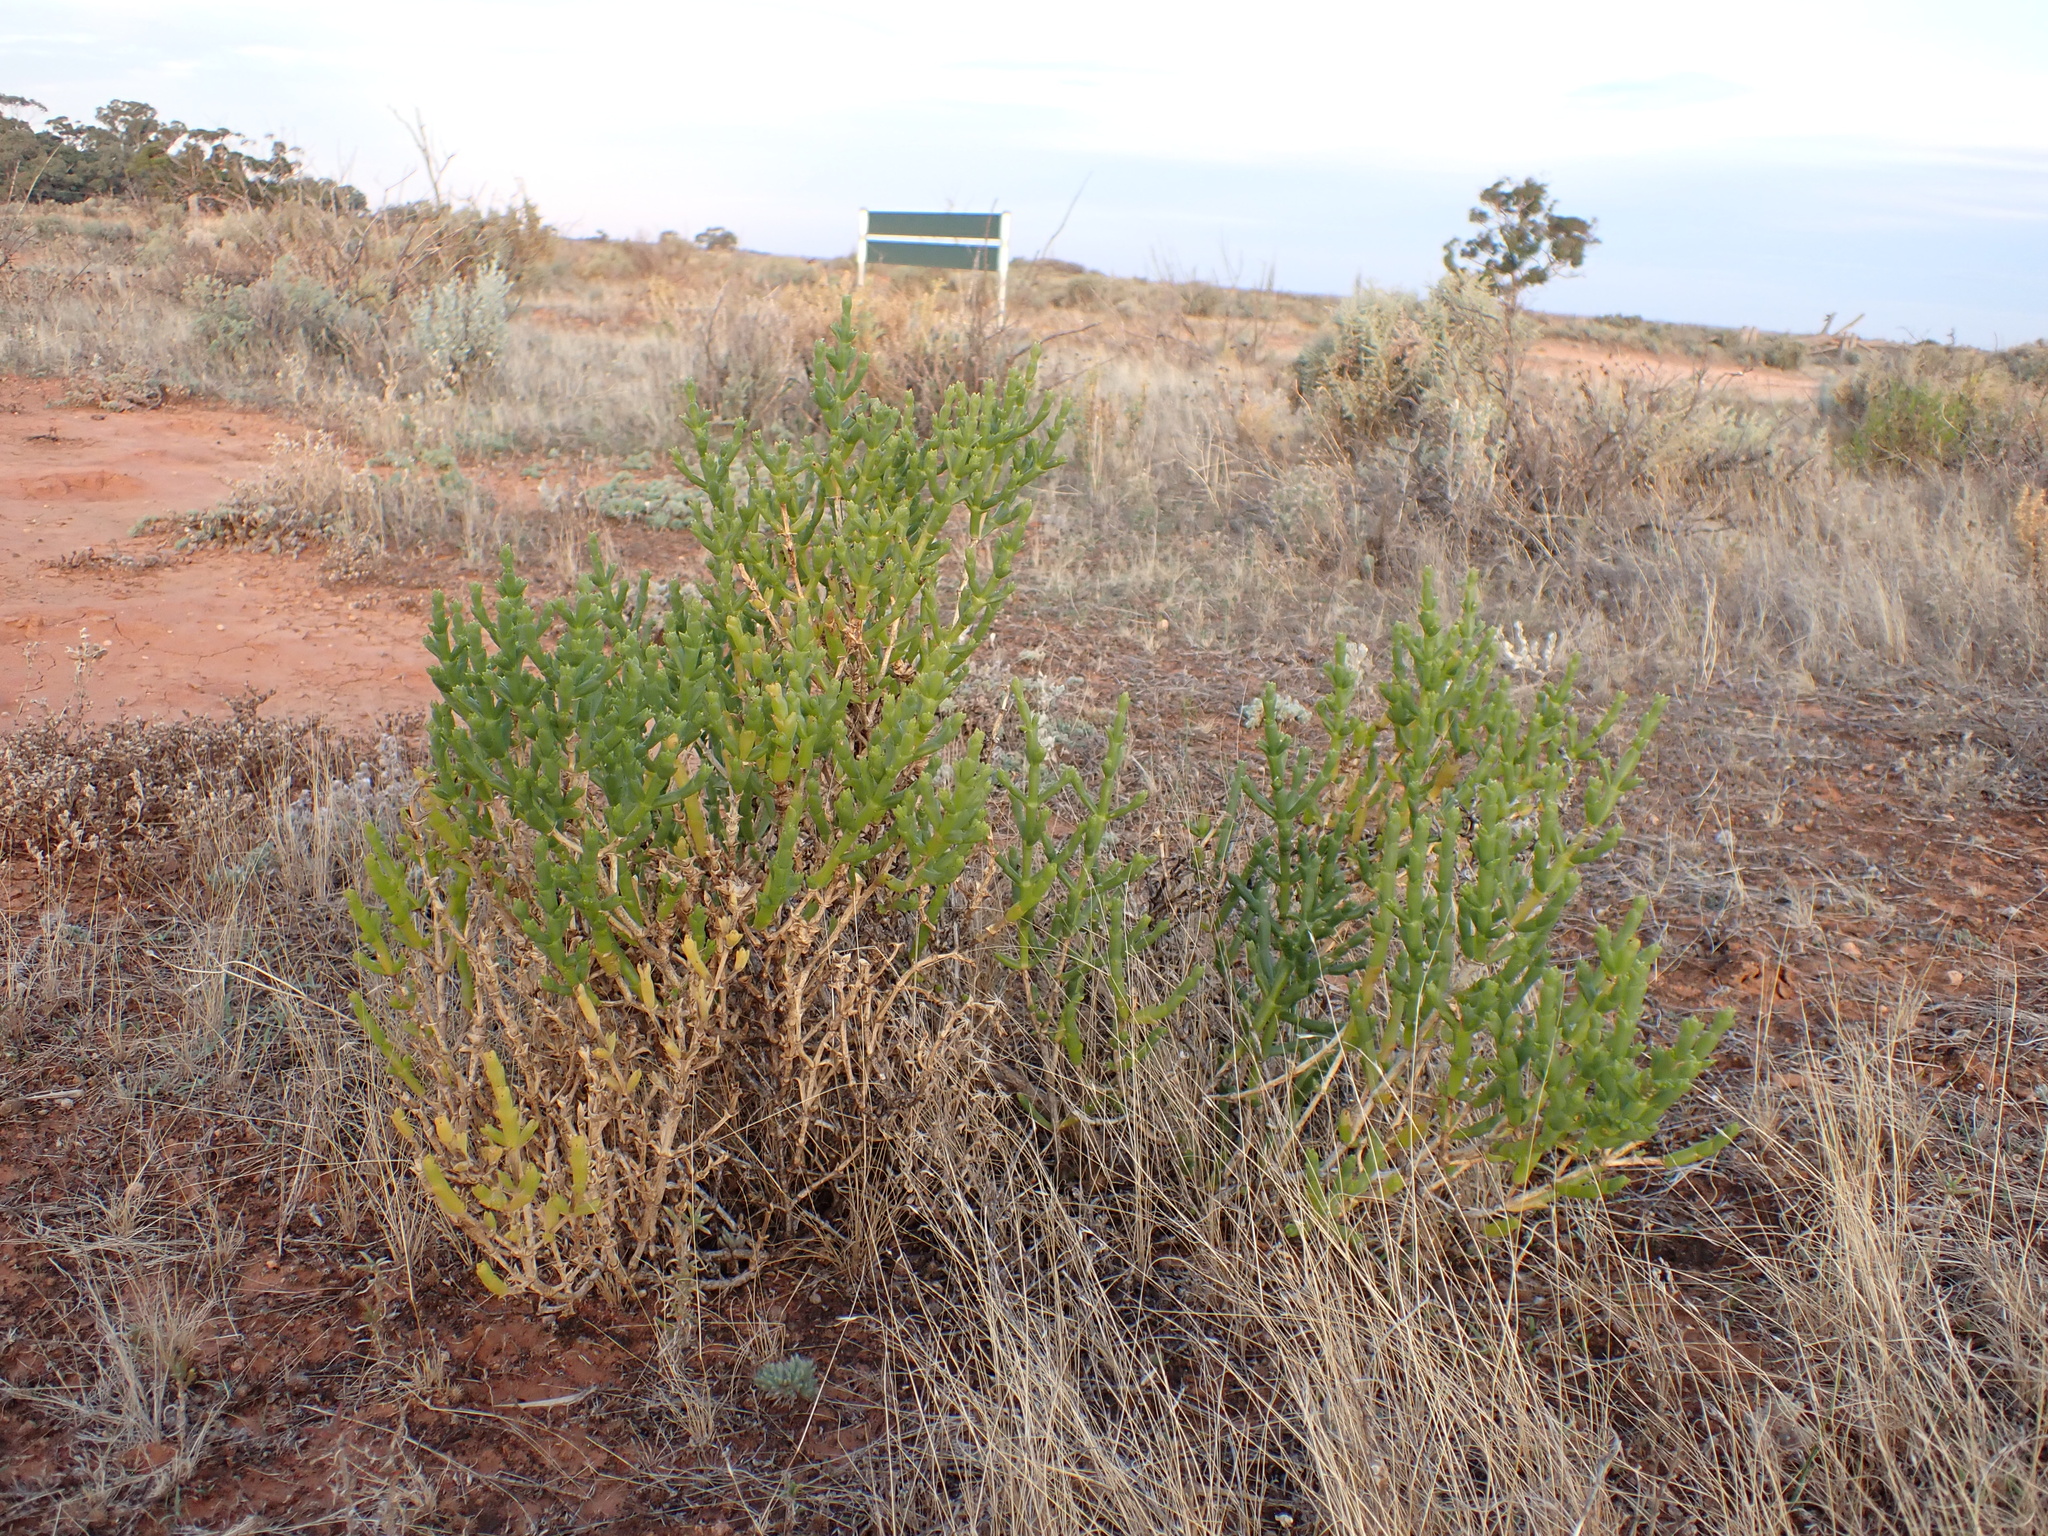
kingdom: Plantae
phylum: Tracheophyta
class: Magnoliopsida
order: Caryophyllales
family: Amaranthaceae
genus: Tecticornia
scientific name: Tecticornia triandra
